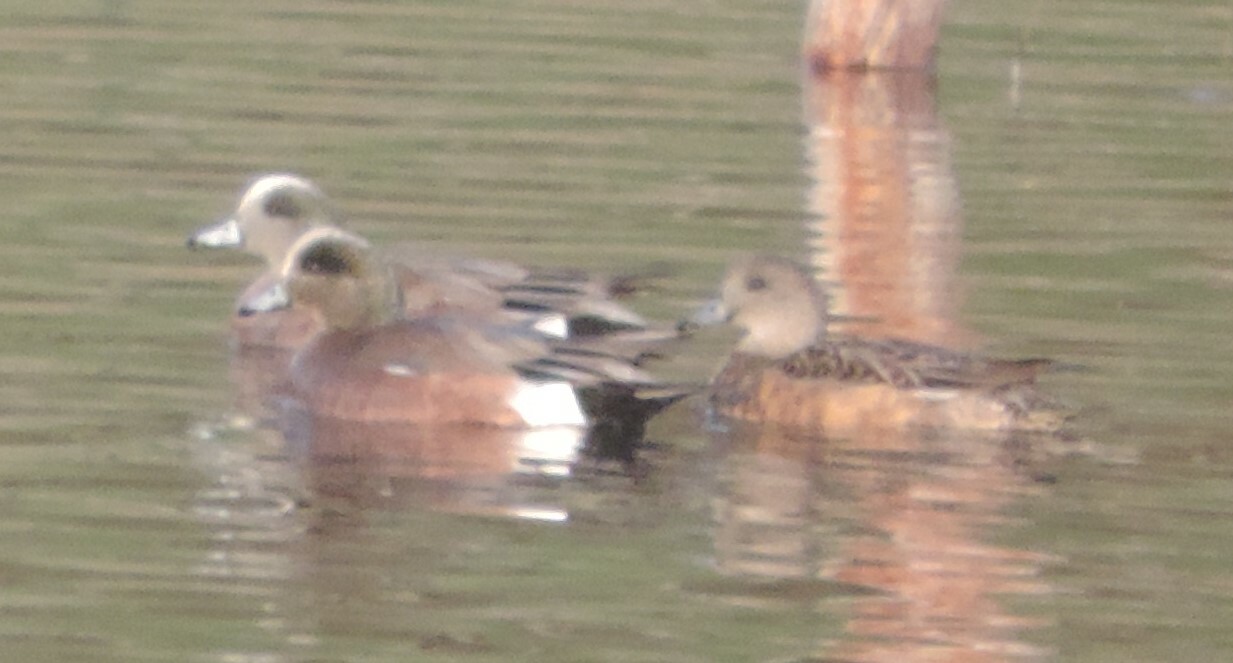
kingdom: Animalia
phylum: Chordata
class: Aves
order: Anseriformes
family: Anatidae
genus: Mareca
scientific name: Mareca americana
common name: American wigeon
